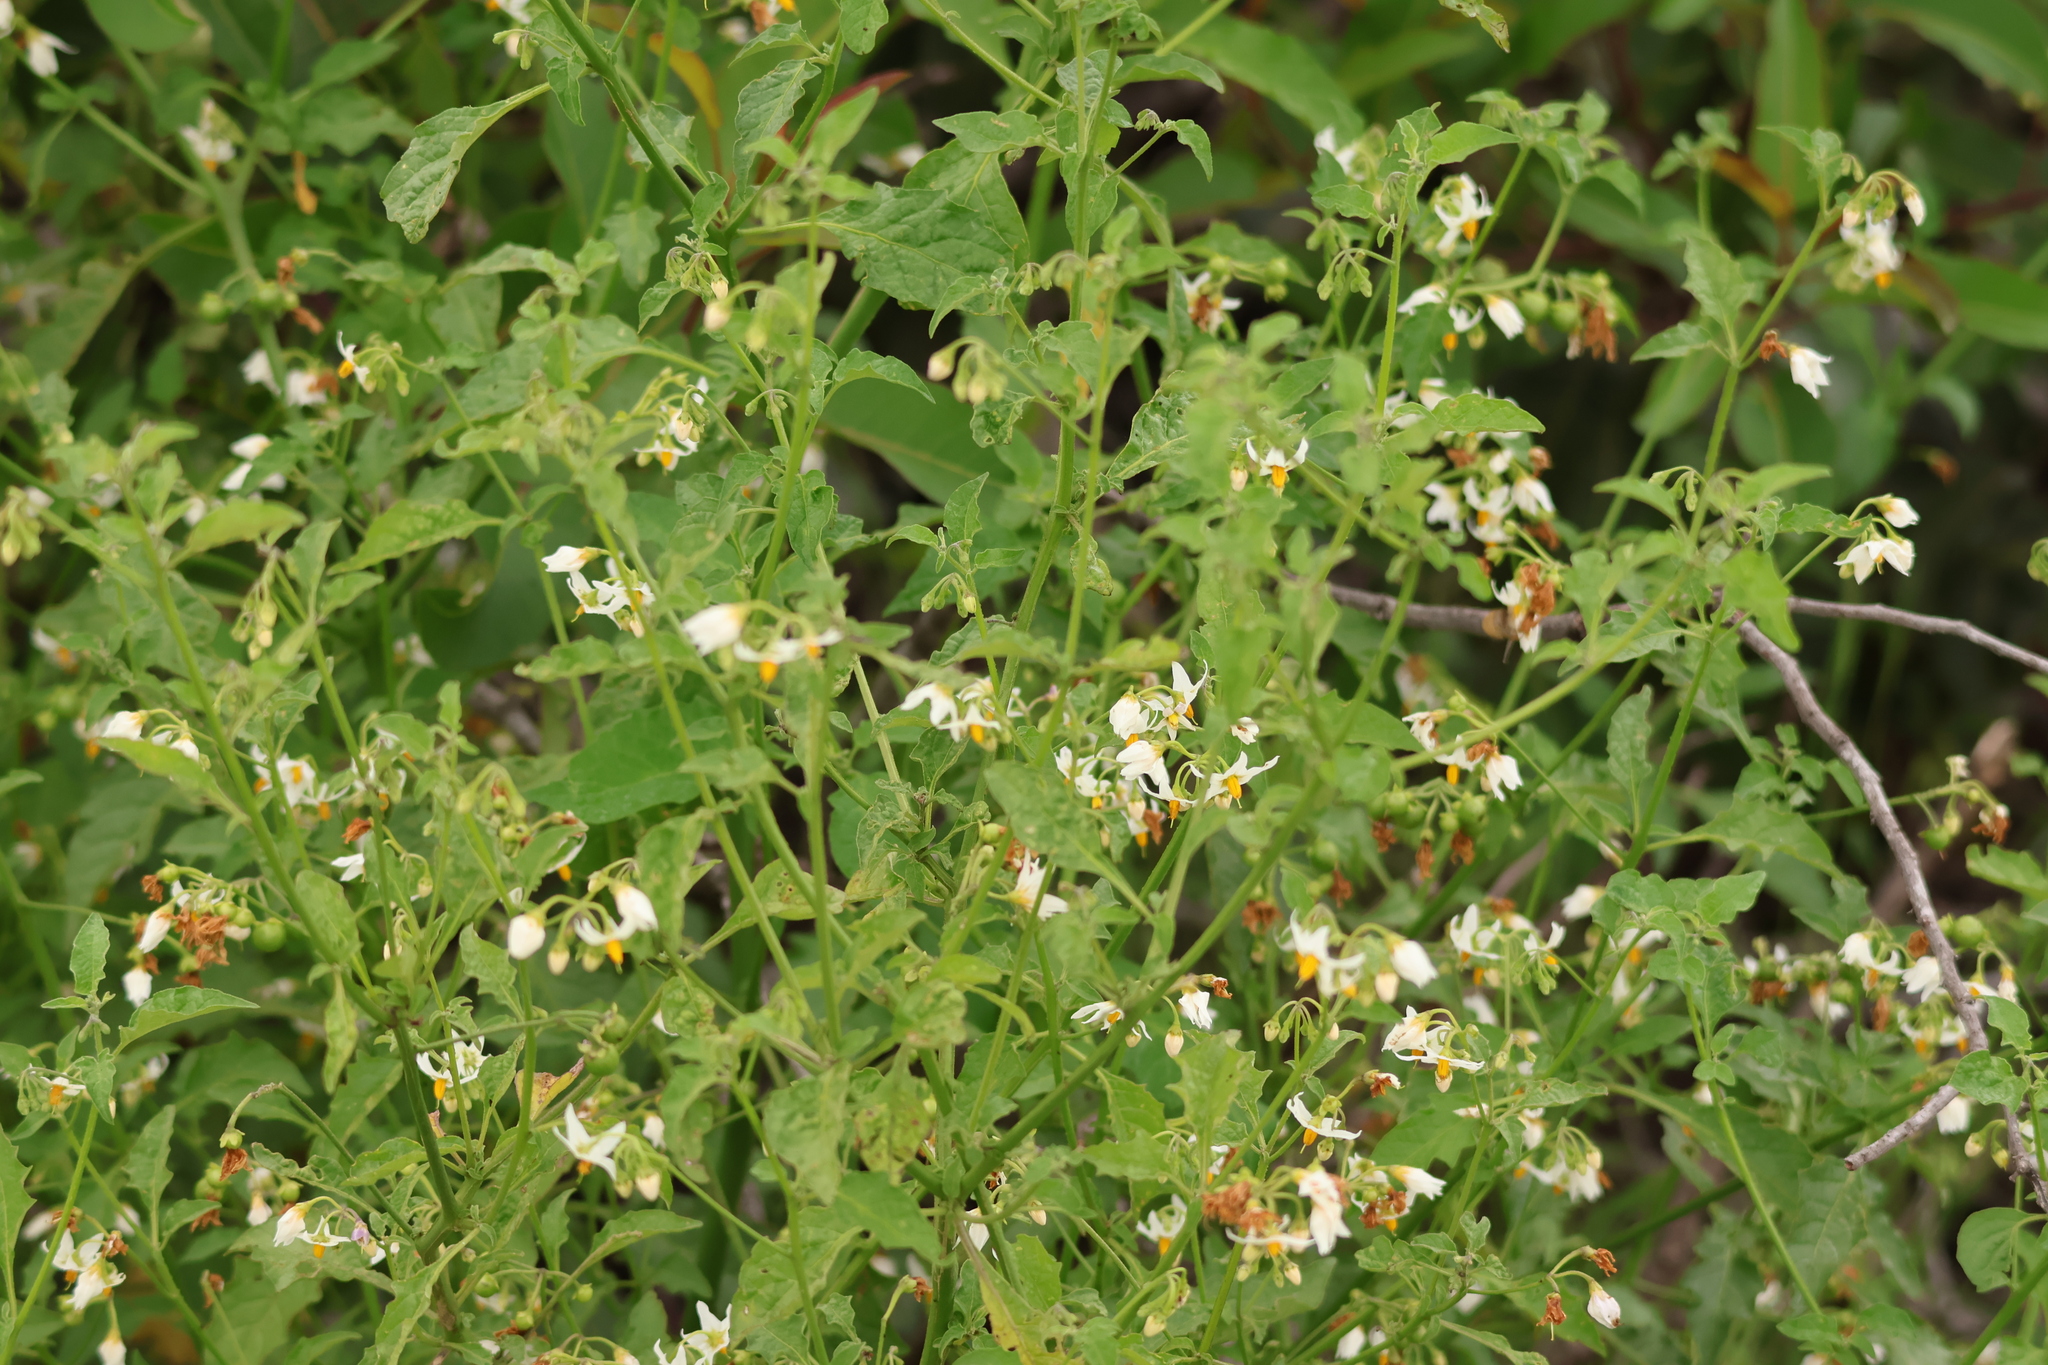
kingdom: Plantae
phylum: Tracheophyta
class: Magnoliopsida
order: Solanales
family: Solanaceae
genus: Solanum
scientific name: Solanum douglasii
